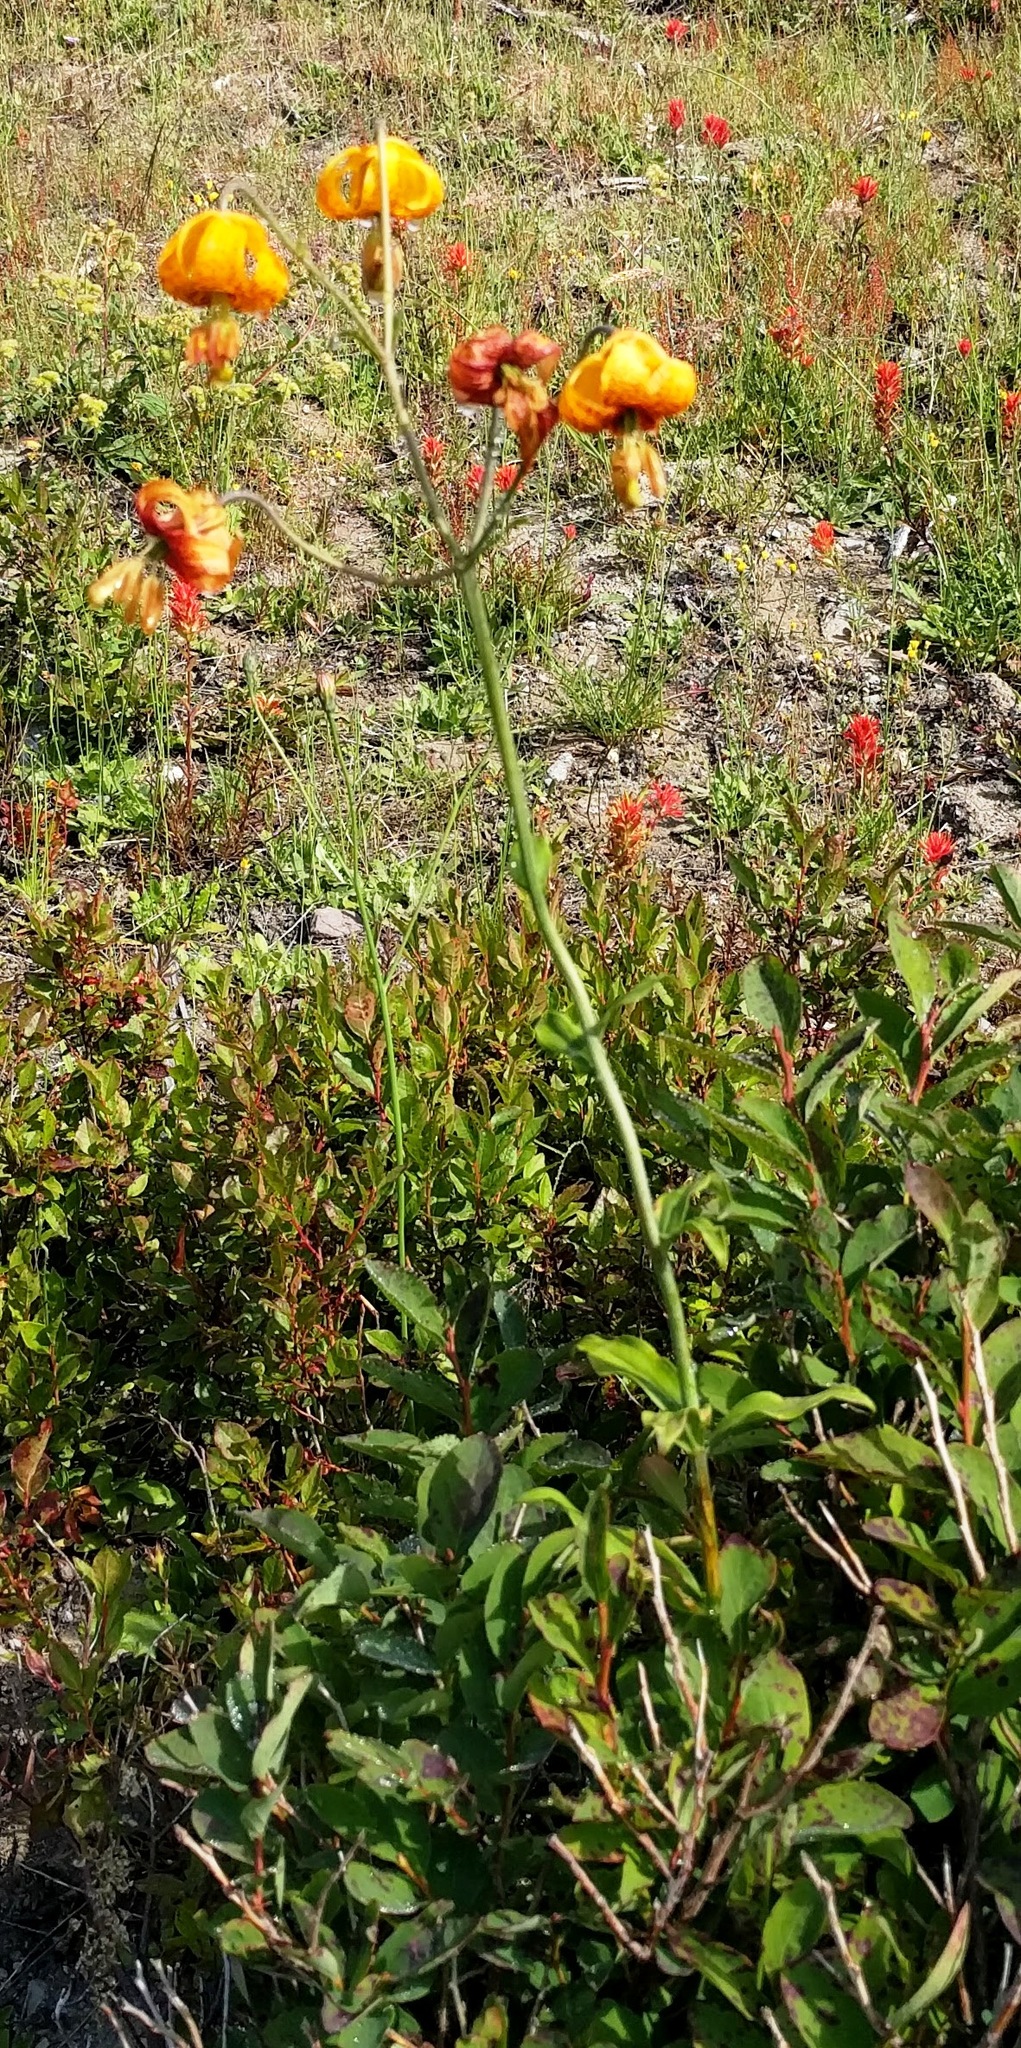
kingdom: Plantae
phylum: Tracheophyta
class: Liliopsida
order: Liliales
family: Liliaceae
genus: Lilium
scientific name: Lilium columbianum
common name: Columbia lily
